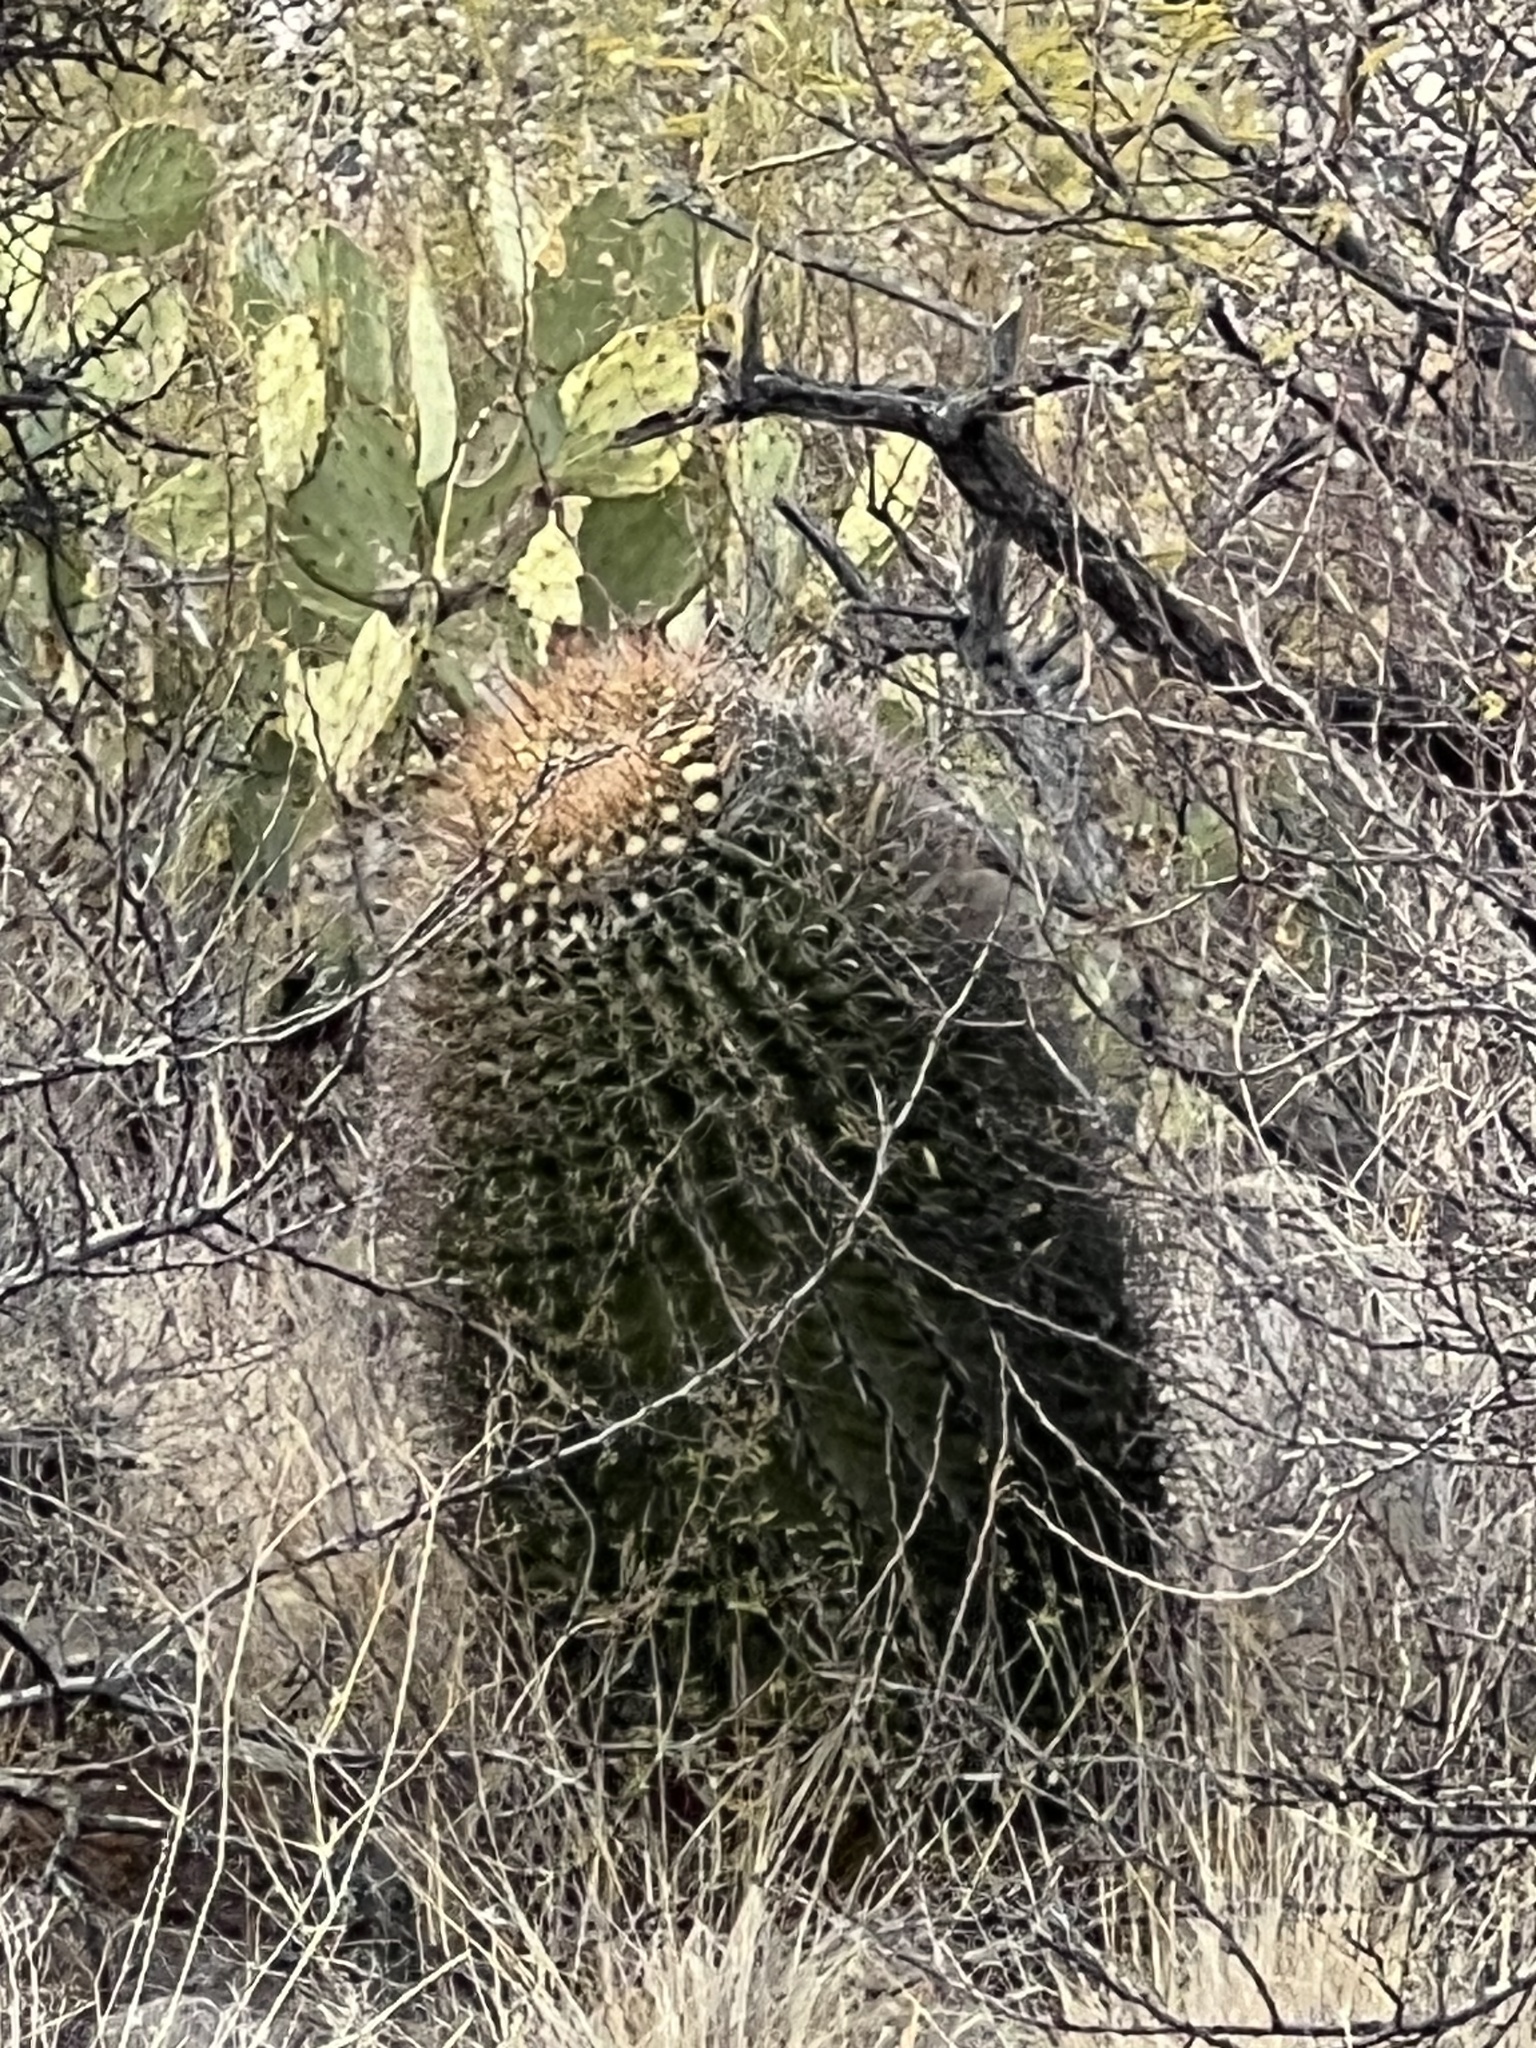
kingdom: Plantae
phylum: Tracheophyta
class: Magnoliopsida
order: Caryophyllales
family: Cactaceae
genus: Ferocactus
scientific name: Ferocactus wislizeni
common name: Candy barrel cactus
